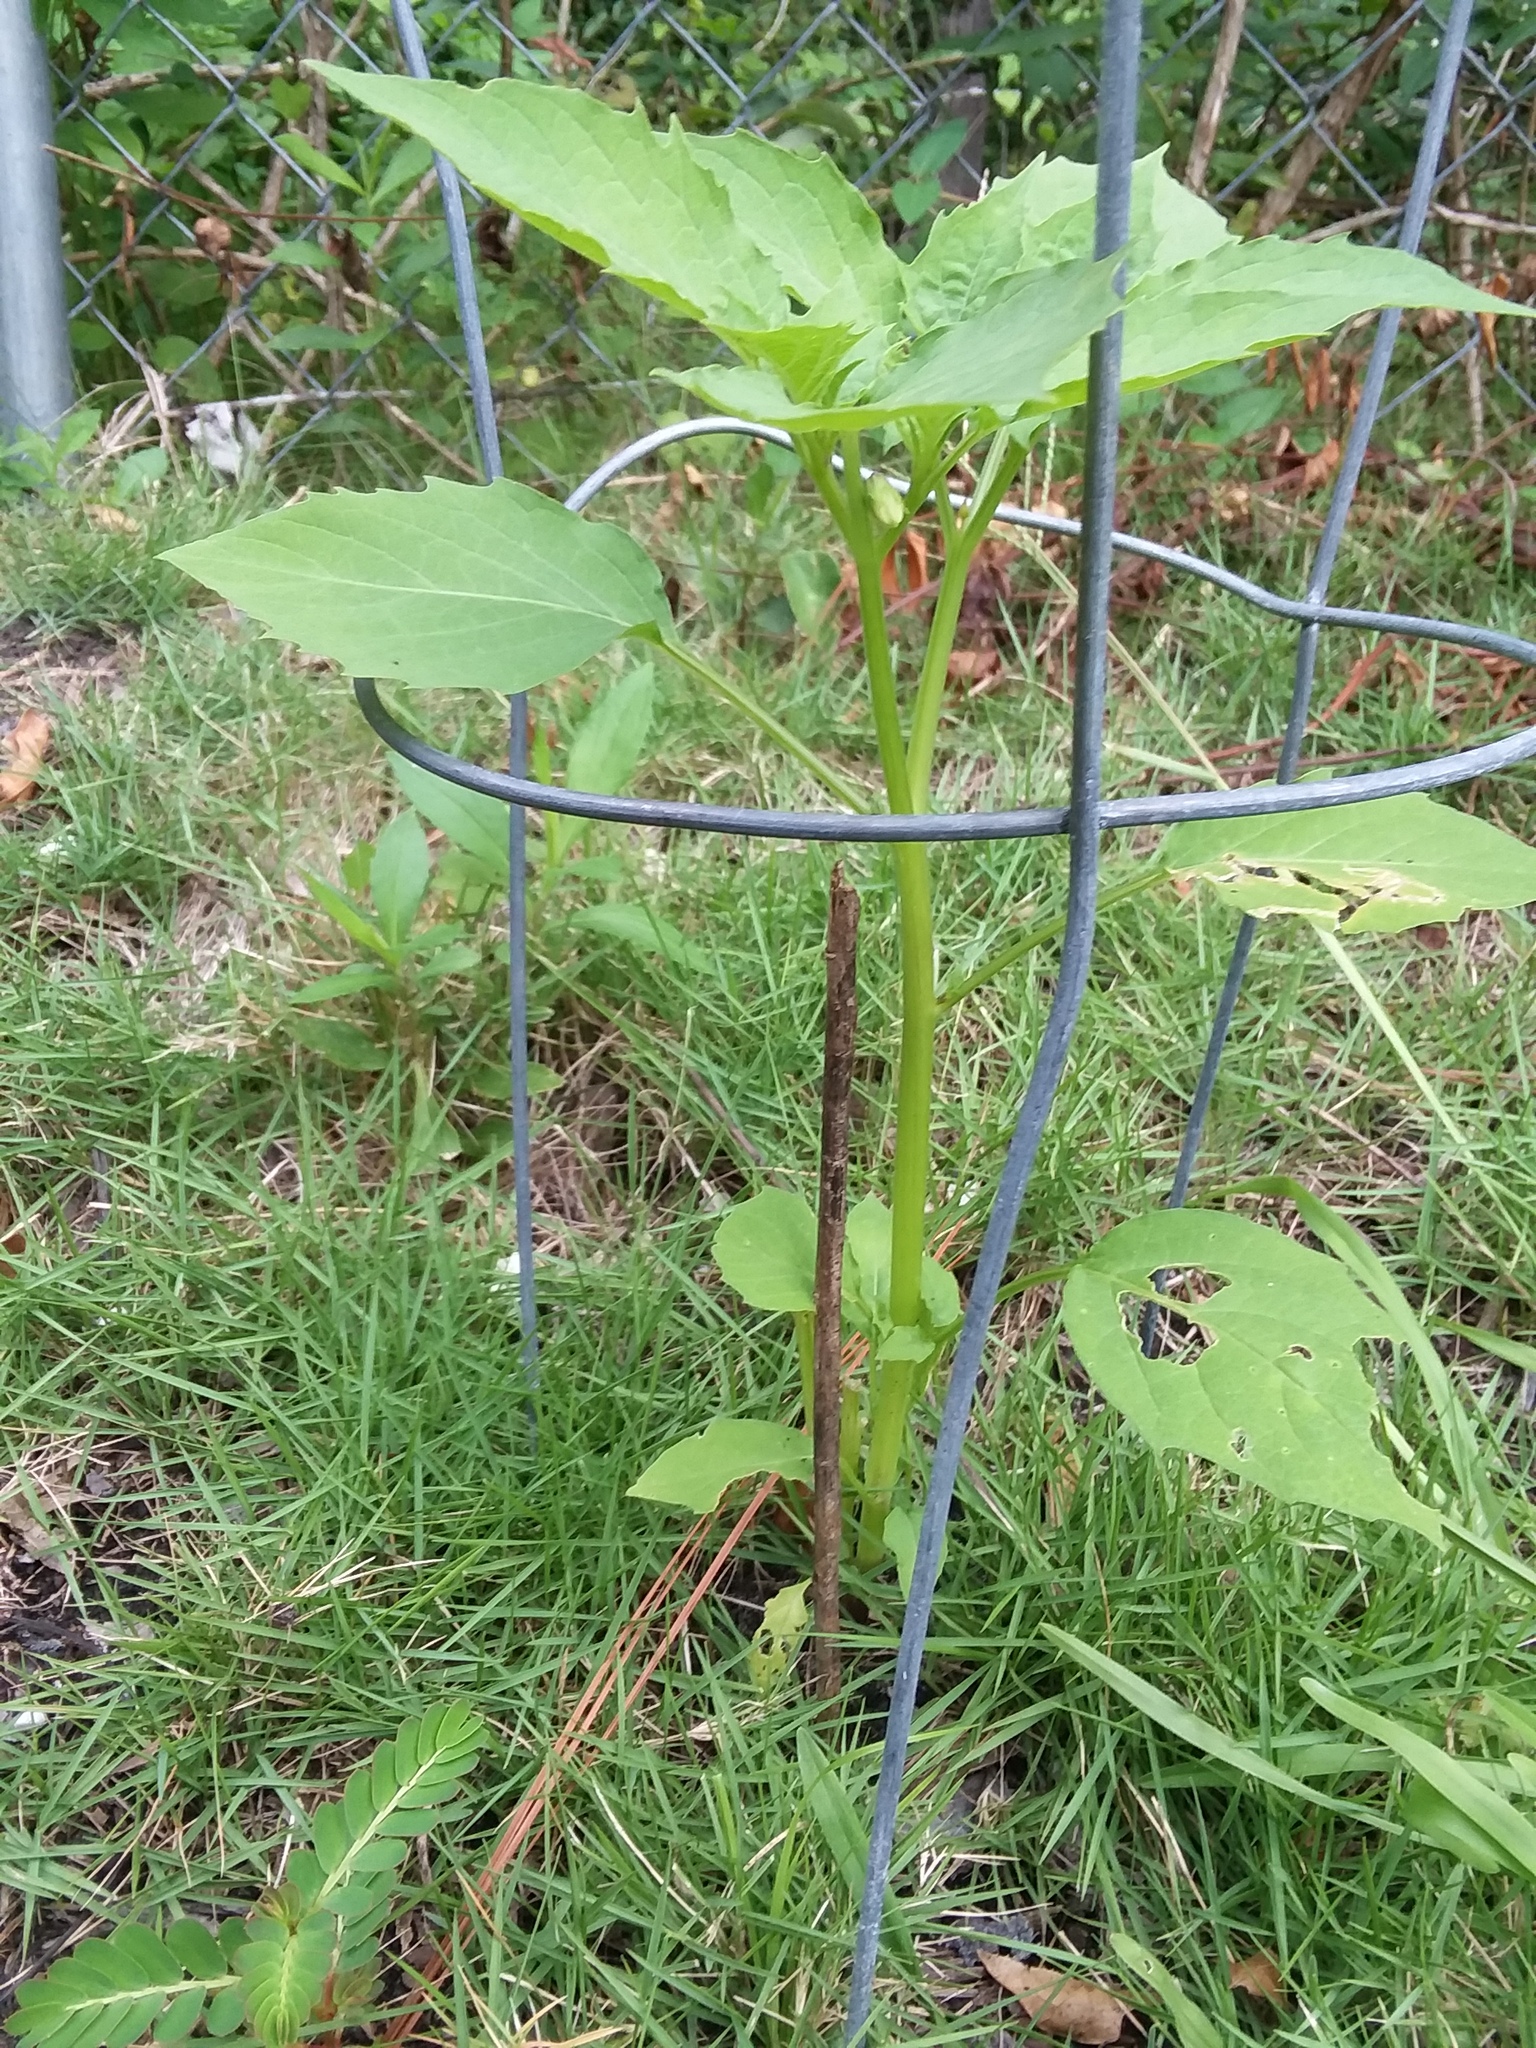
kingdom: Plantae
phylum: Tracheophyta
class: Magnoliopsida
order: Solanales
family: Solanaceae
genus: Physalis
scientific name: Physalis angulata
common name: Angular winter-cherry
